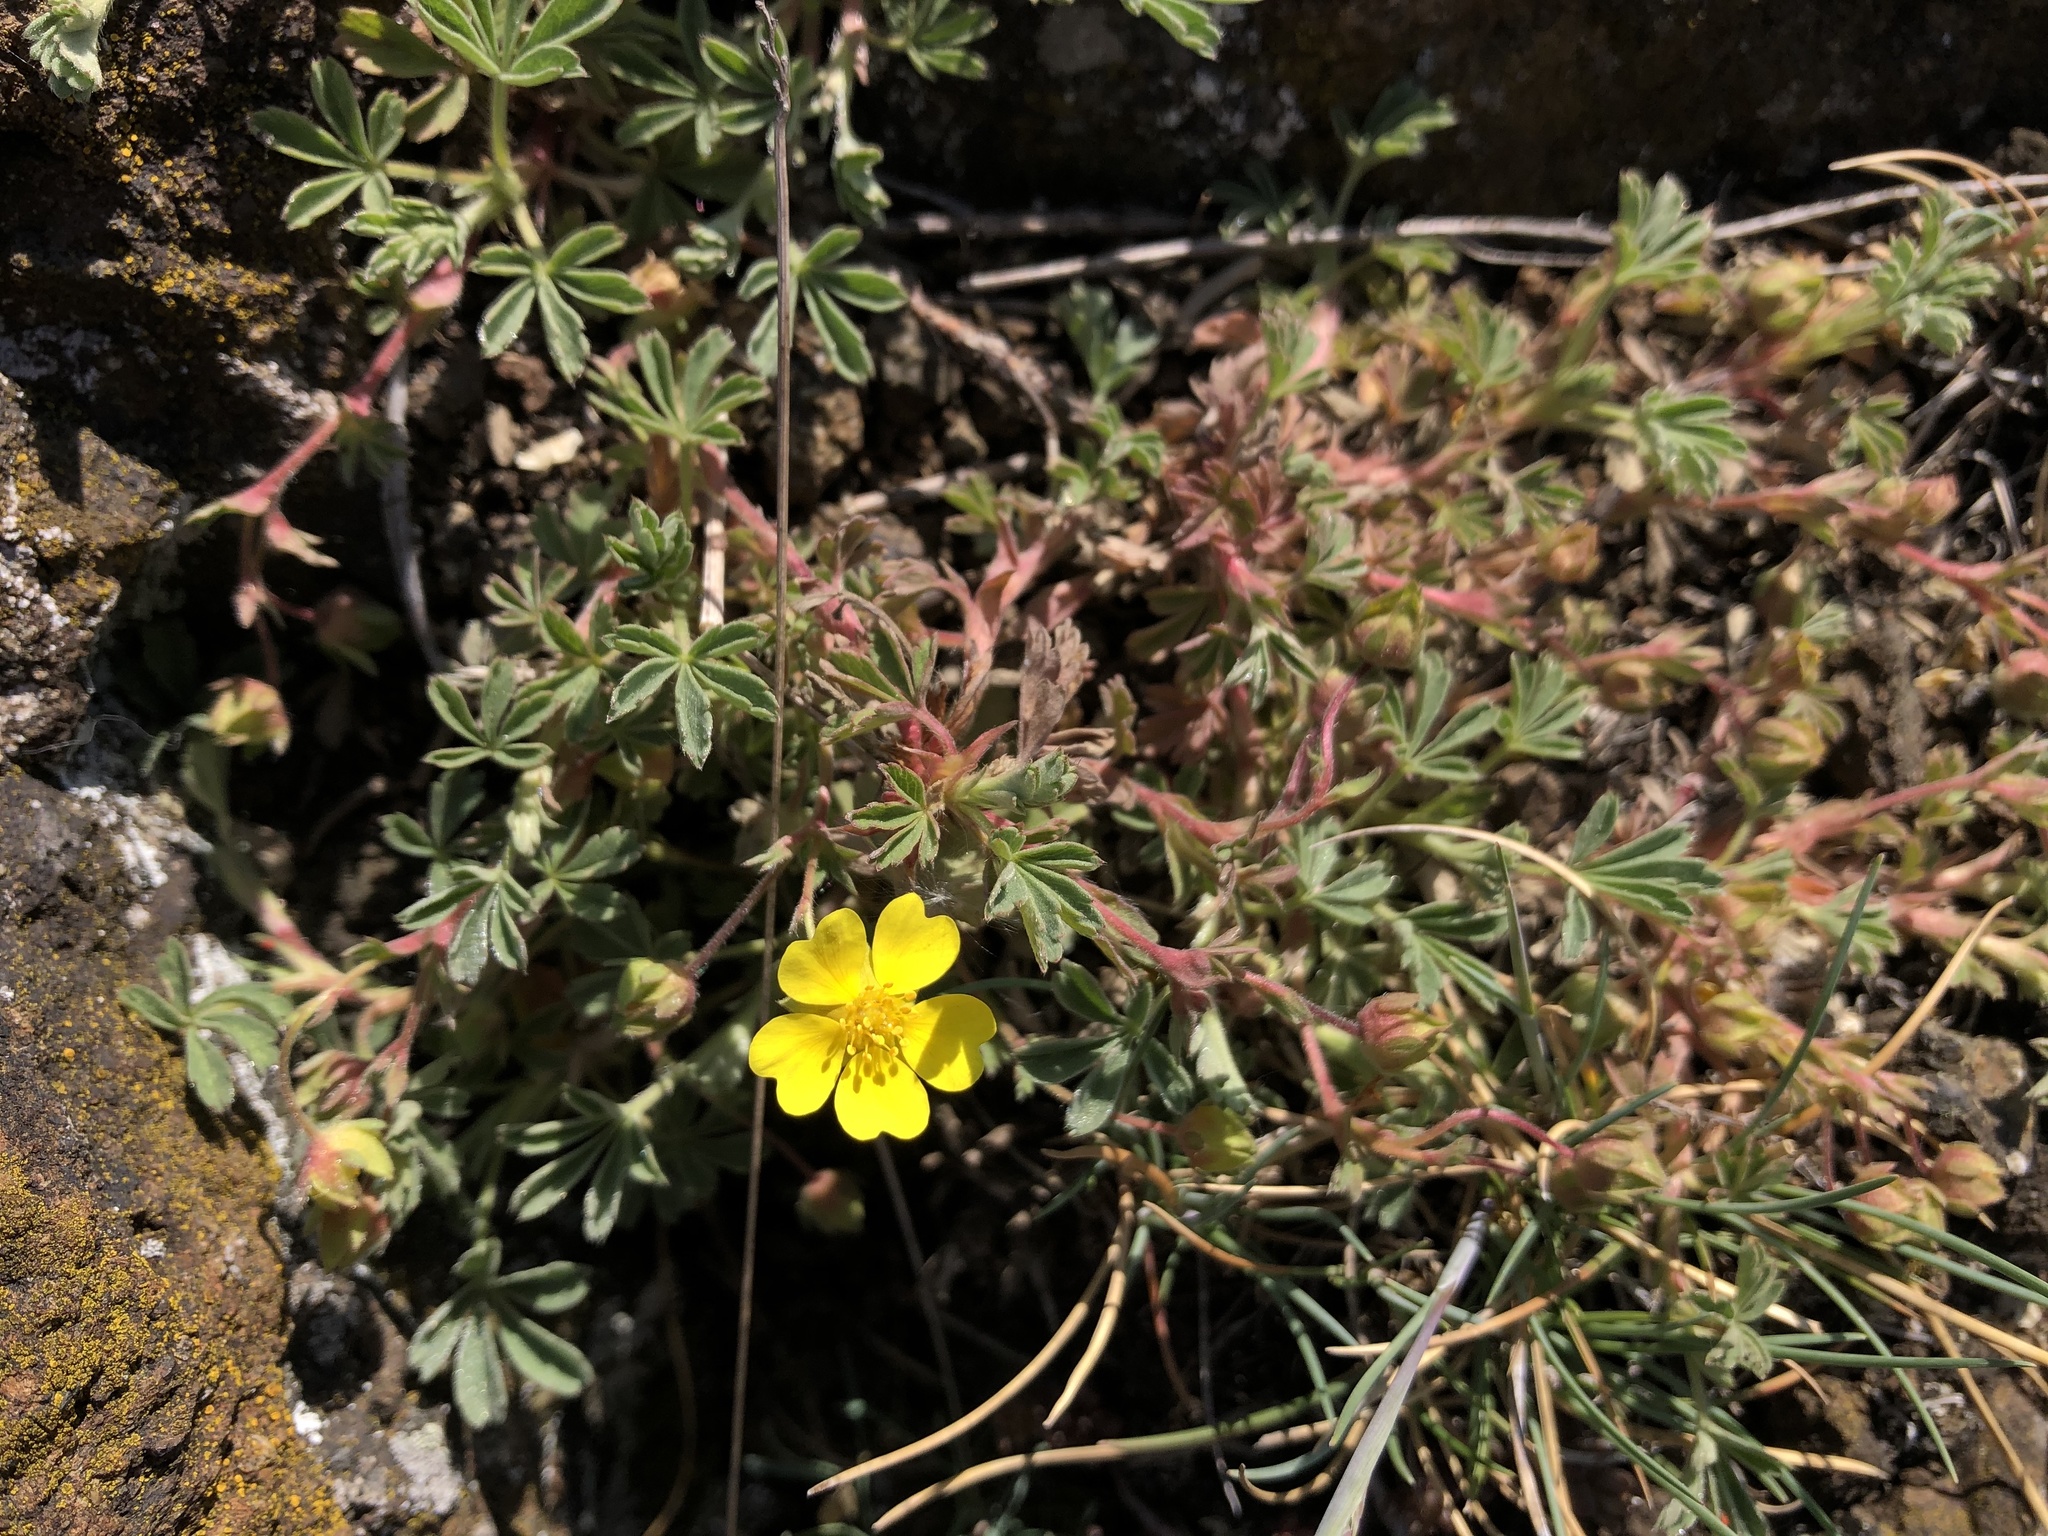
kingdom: Plantae
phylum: Tracheophyta
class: Magnoliopsida
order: Rosales
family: Rosaceae
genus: Potentilla
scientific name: Potentilla incana
